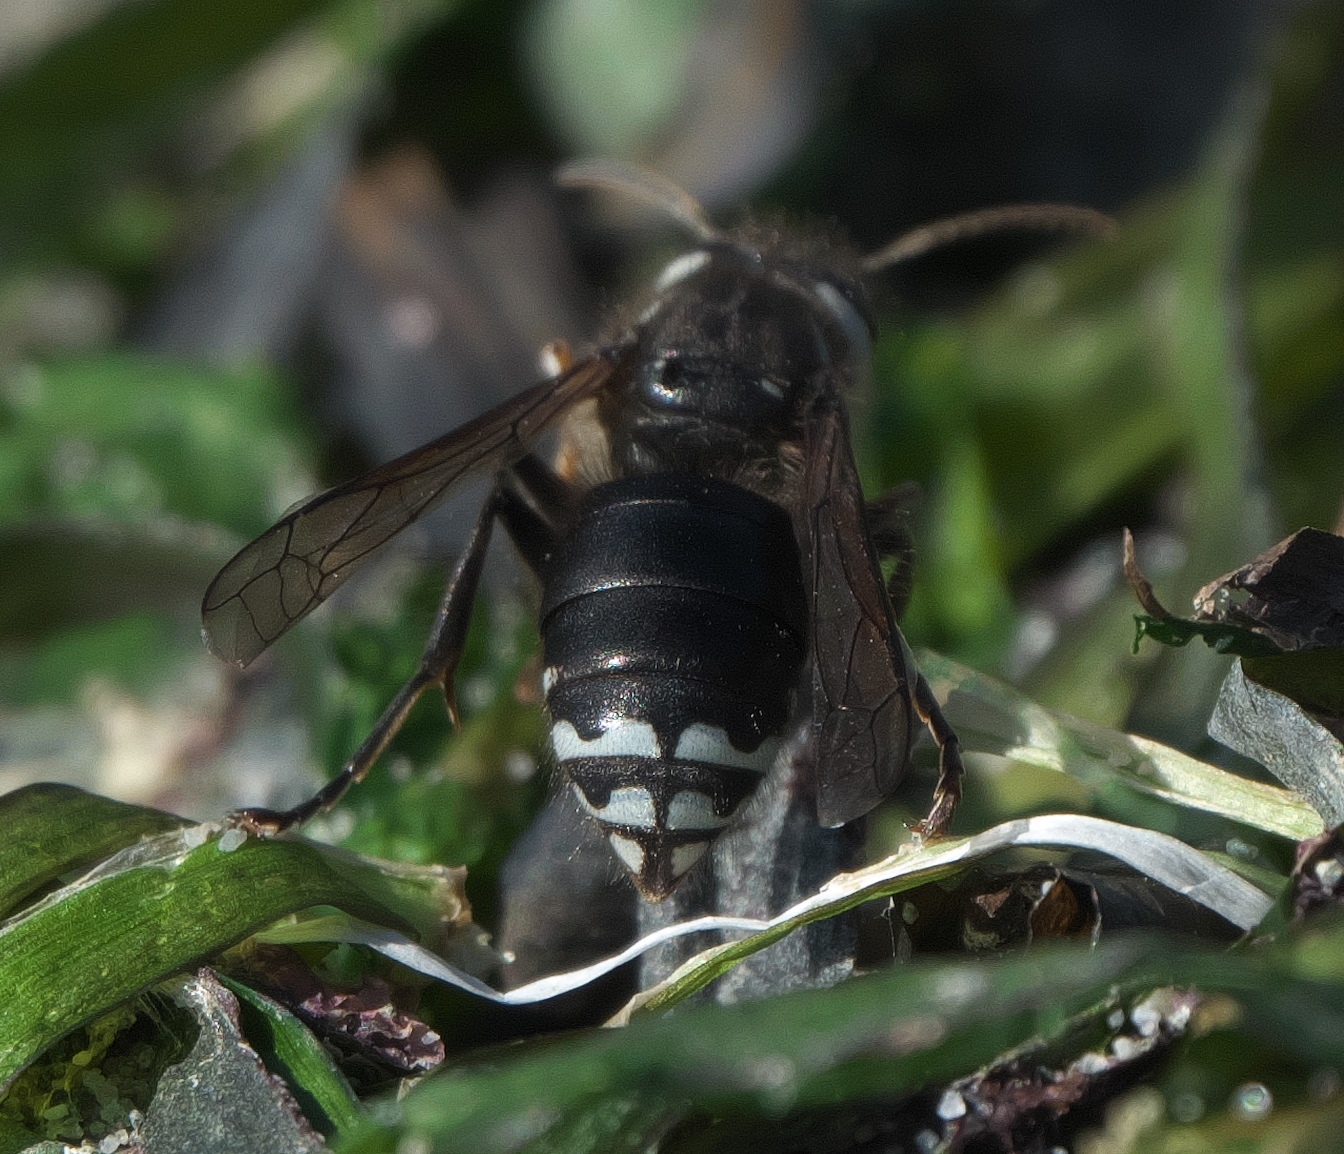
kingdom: Animalia
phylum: Arthropoda
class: Insecta
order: Hymenoptera
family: Vespidae
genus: Dolichovespula
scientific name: Dolichovespula maculata
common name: Bald-faced hornet
